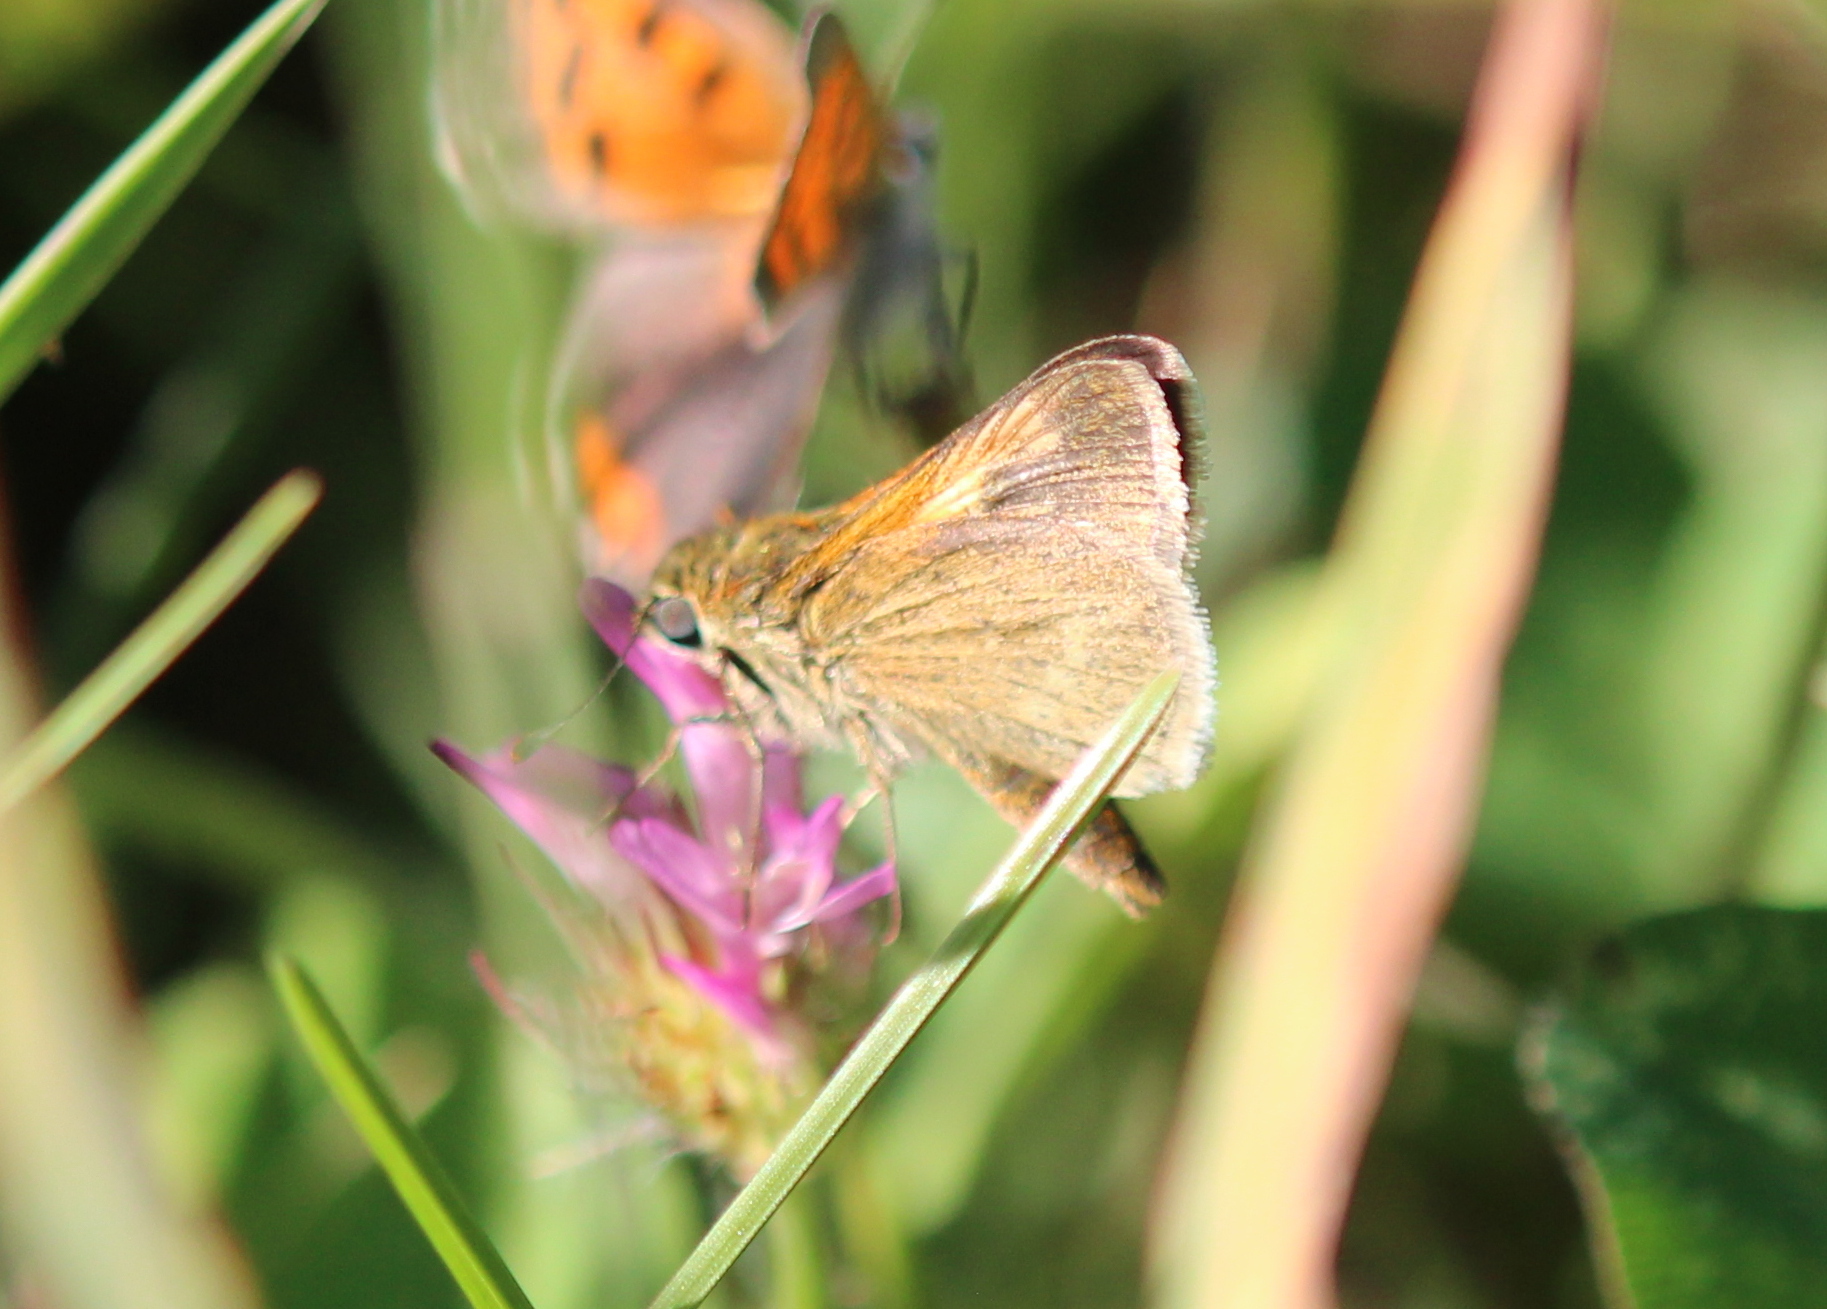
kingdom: Animalia
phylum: Arthropoda
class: Insecta
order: Lepidoptera
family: Hesperiidae
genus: Polites
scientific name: Polites themistocles
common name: Tawny-edged skipper
